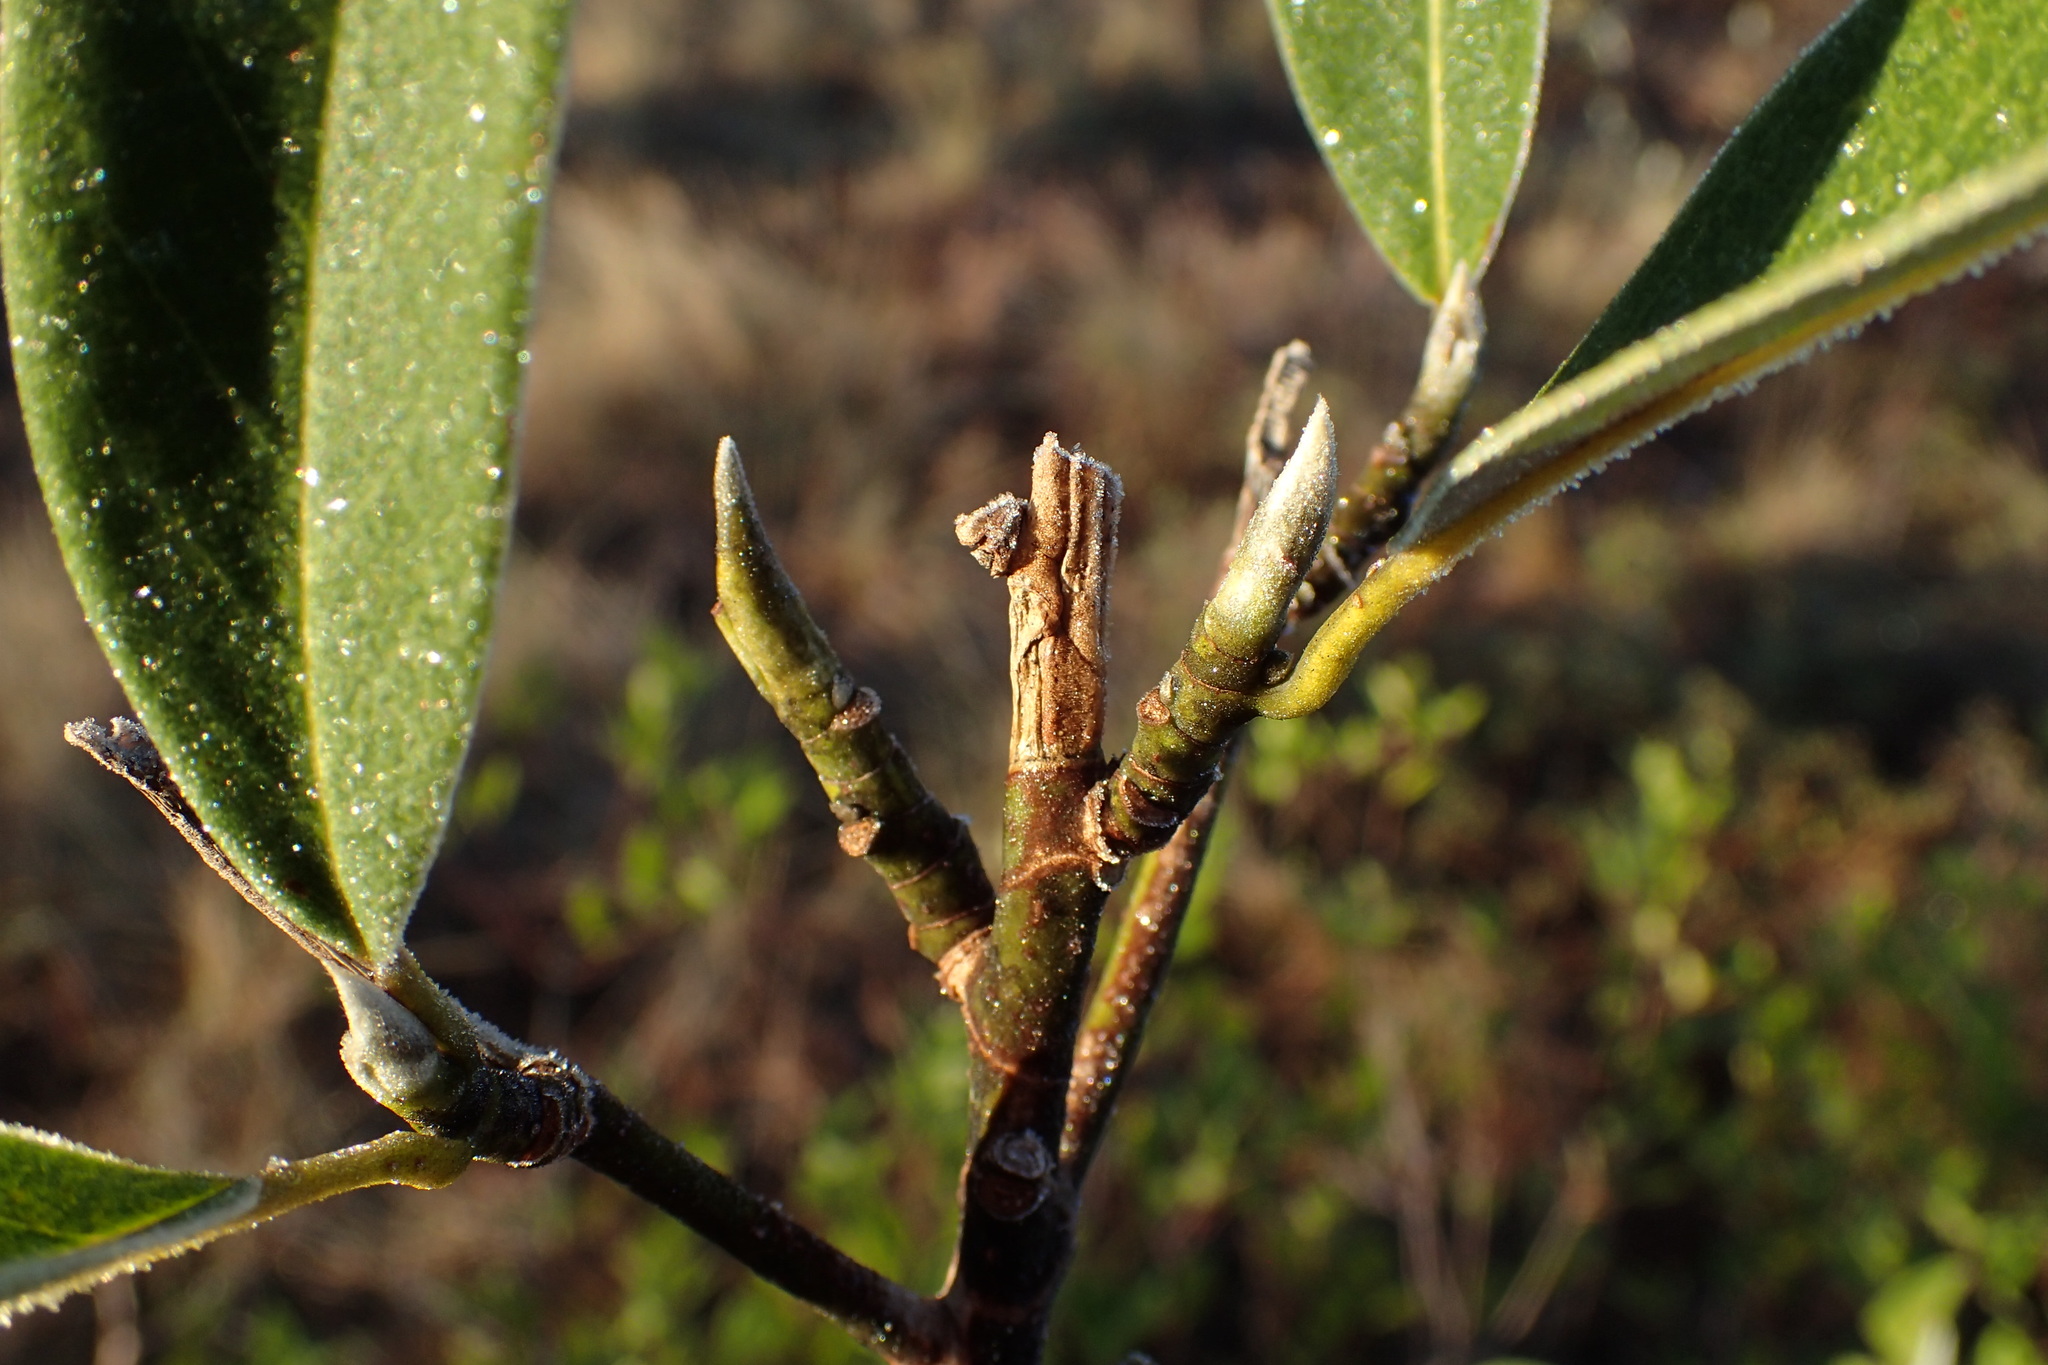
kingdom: Plantae
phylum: Tracheophyta
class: Magnoliopsida
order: Magnoliales
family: Magnoliaceae
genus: Magnolia
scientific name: Magnolia virginiana
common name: Swamp bay
